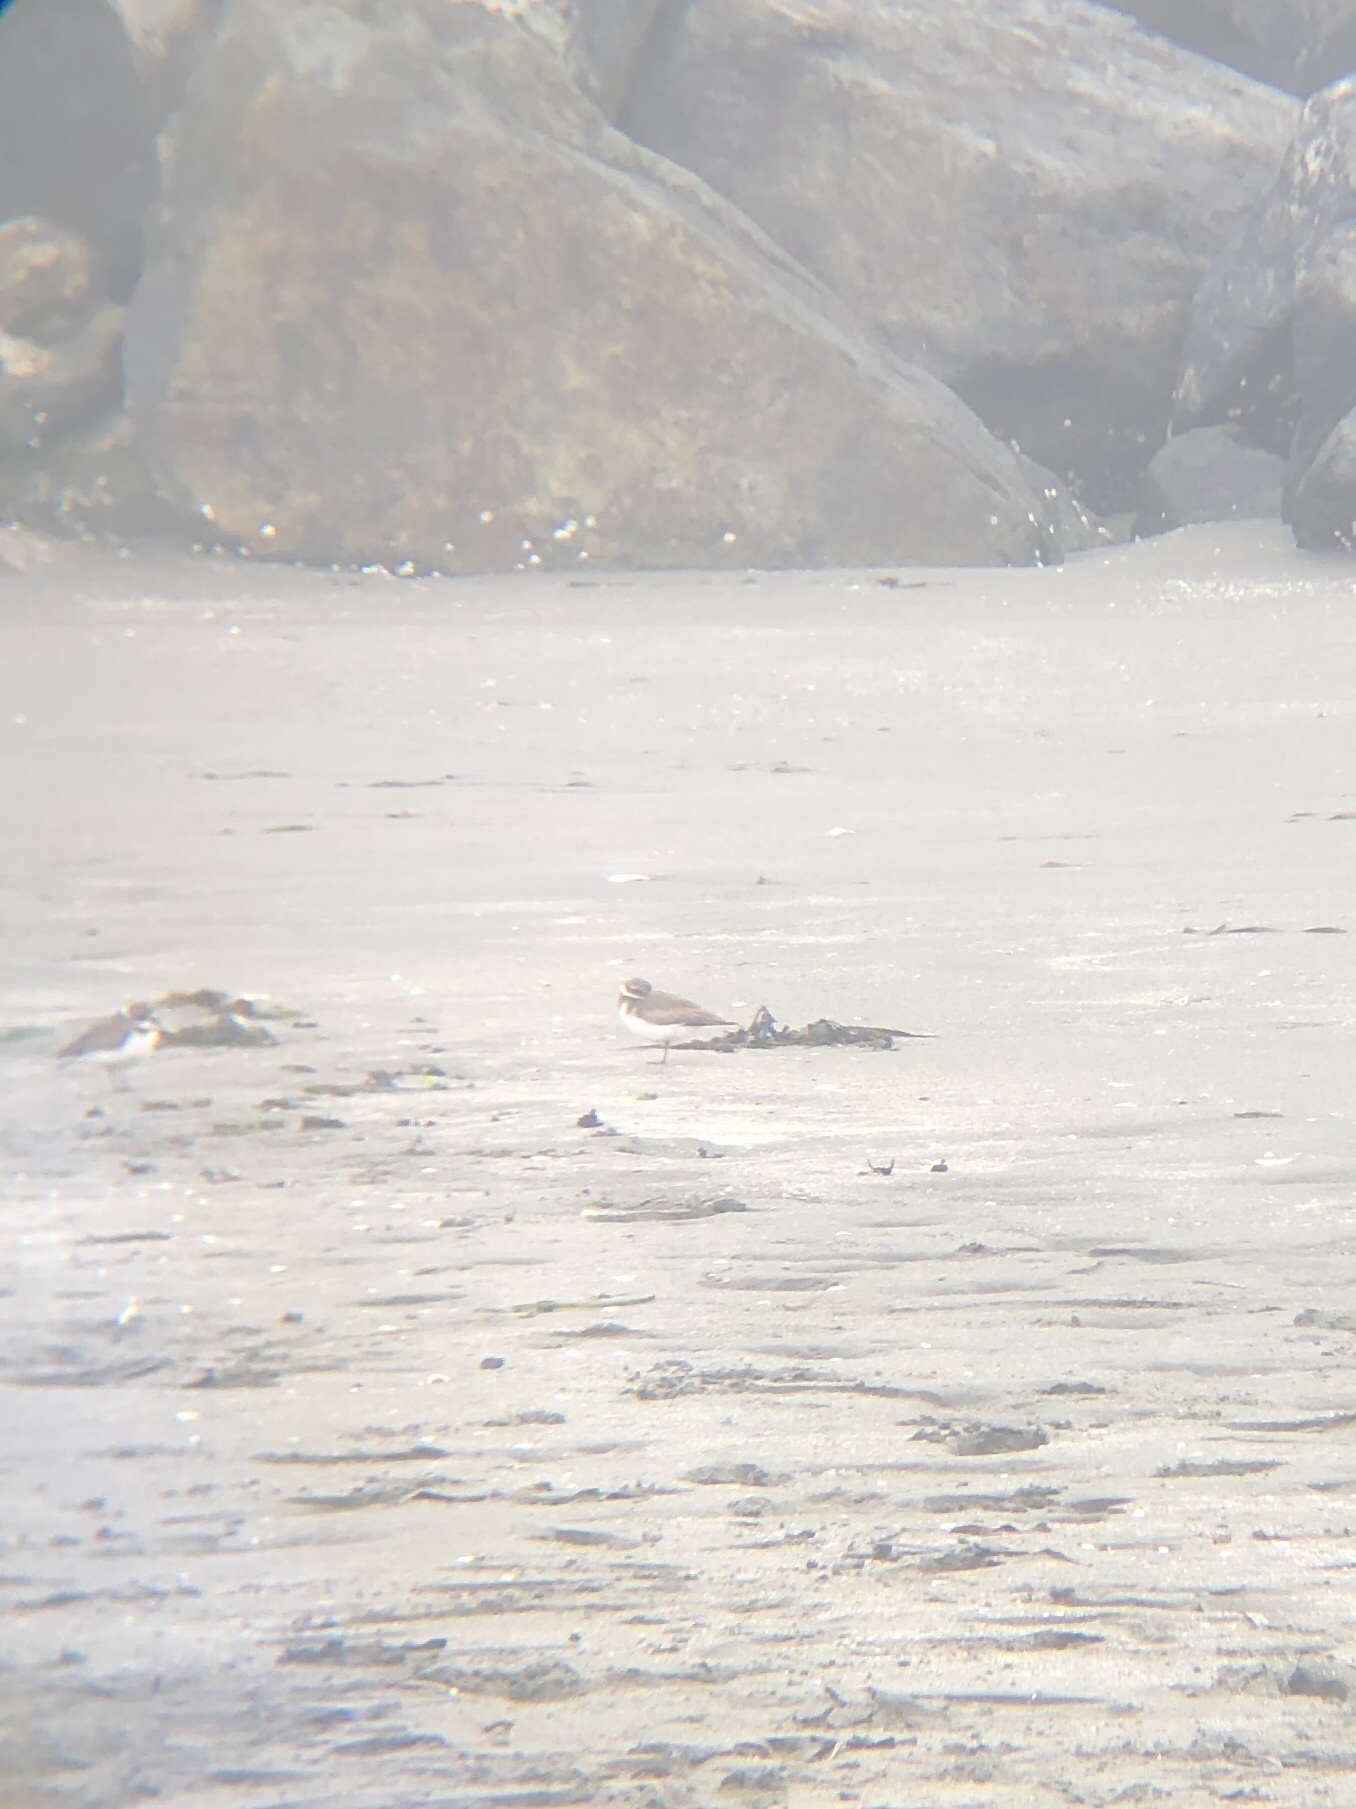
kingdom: Animalia
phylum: Chordata
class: Aves
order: Charadriiformes
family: Charadriidae
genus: Charadrius
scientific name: Charadrius semipalmatus
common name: Semipalmated plover
